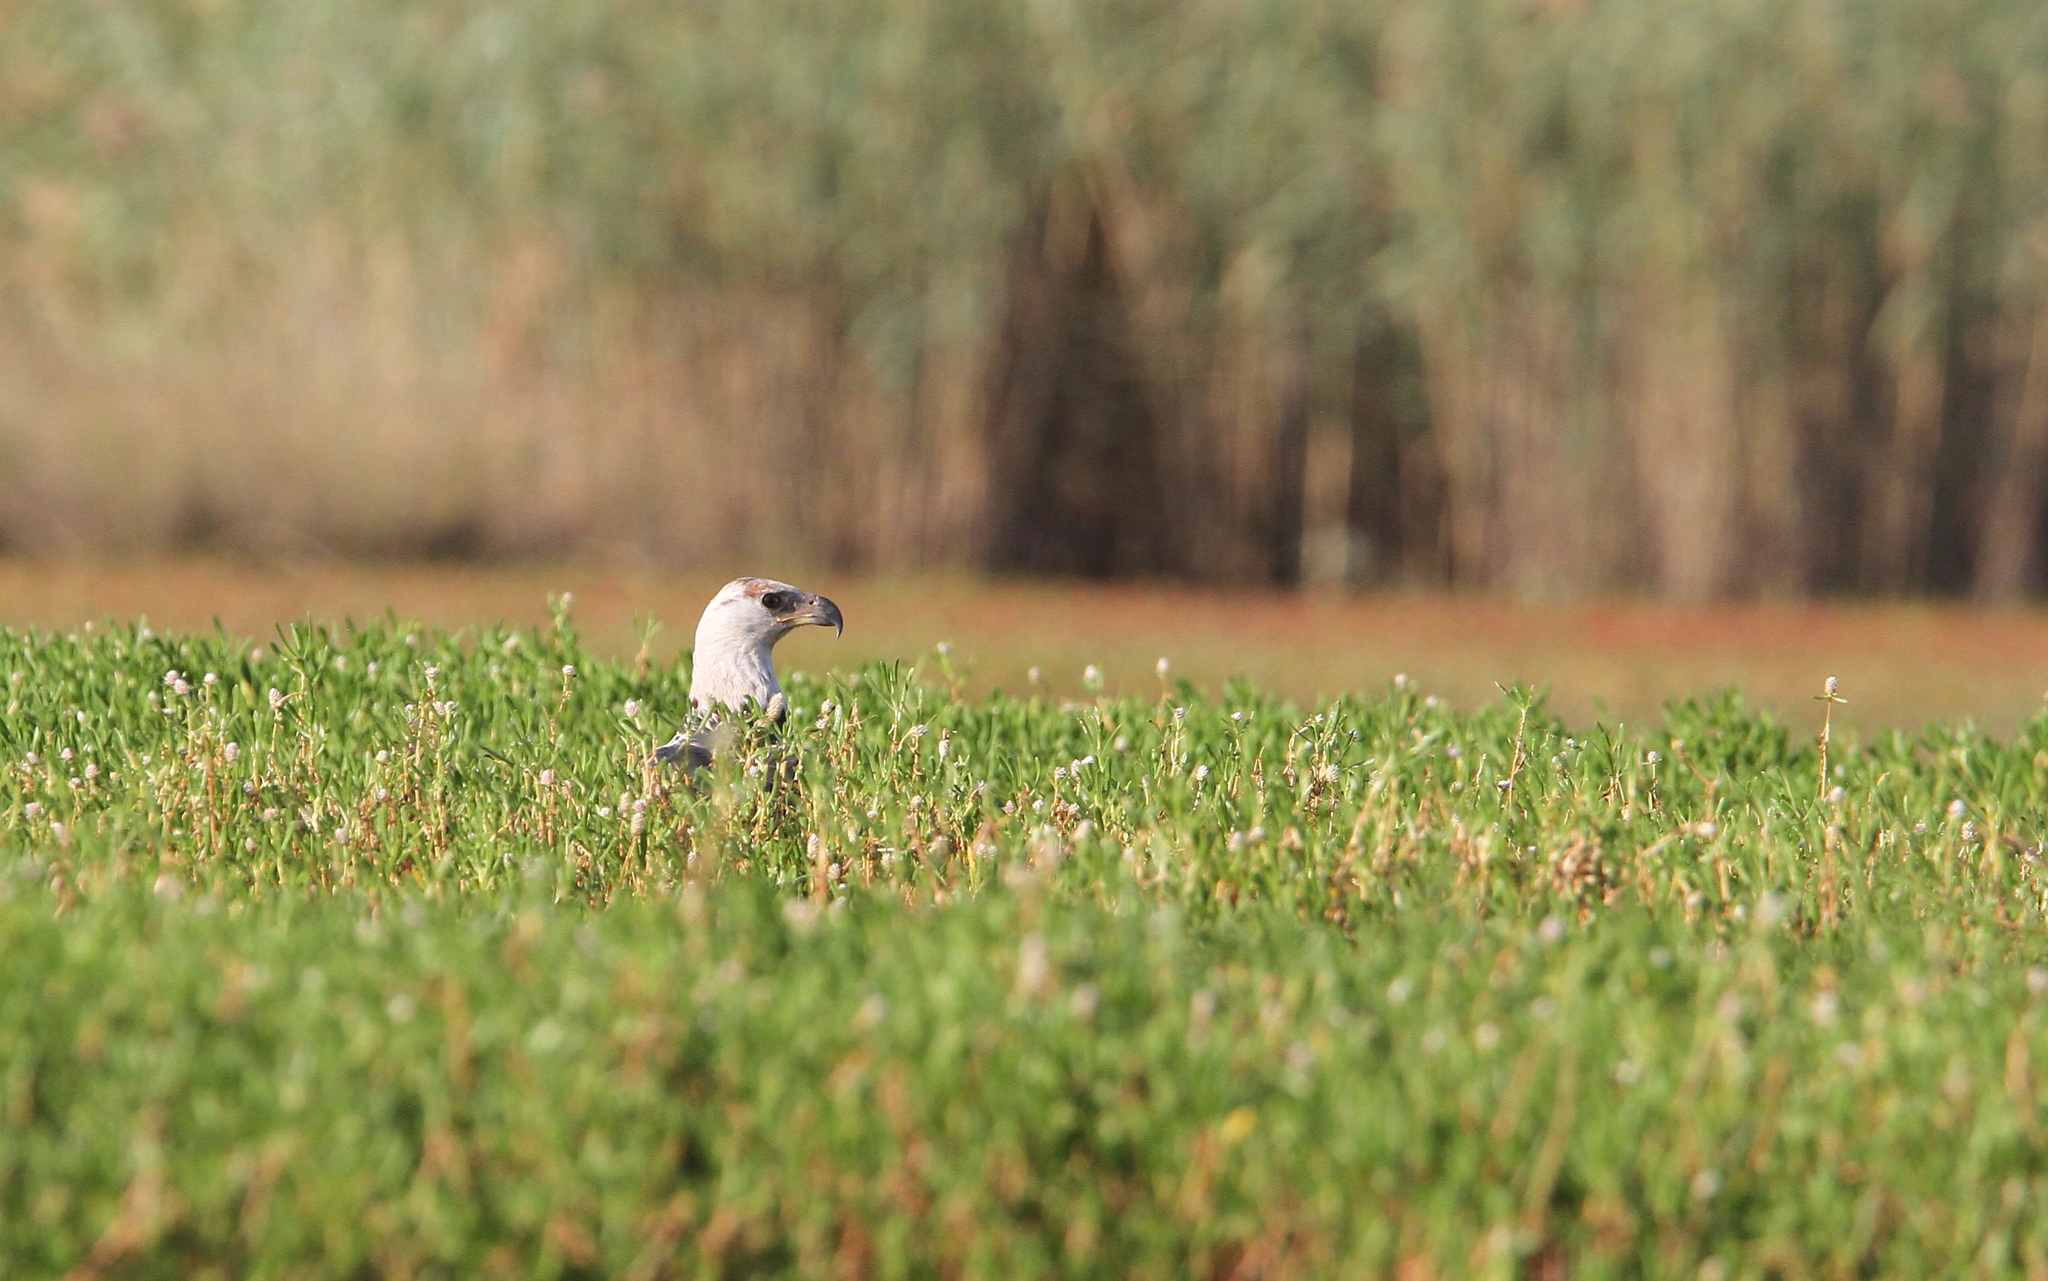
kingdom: Animalia
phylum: Chordata
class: Aves
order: Accipitriformes
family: Accipitridae
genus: Haliaeetus
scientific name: Haliaeetus vocifer
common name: African fish eagle
